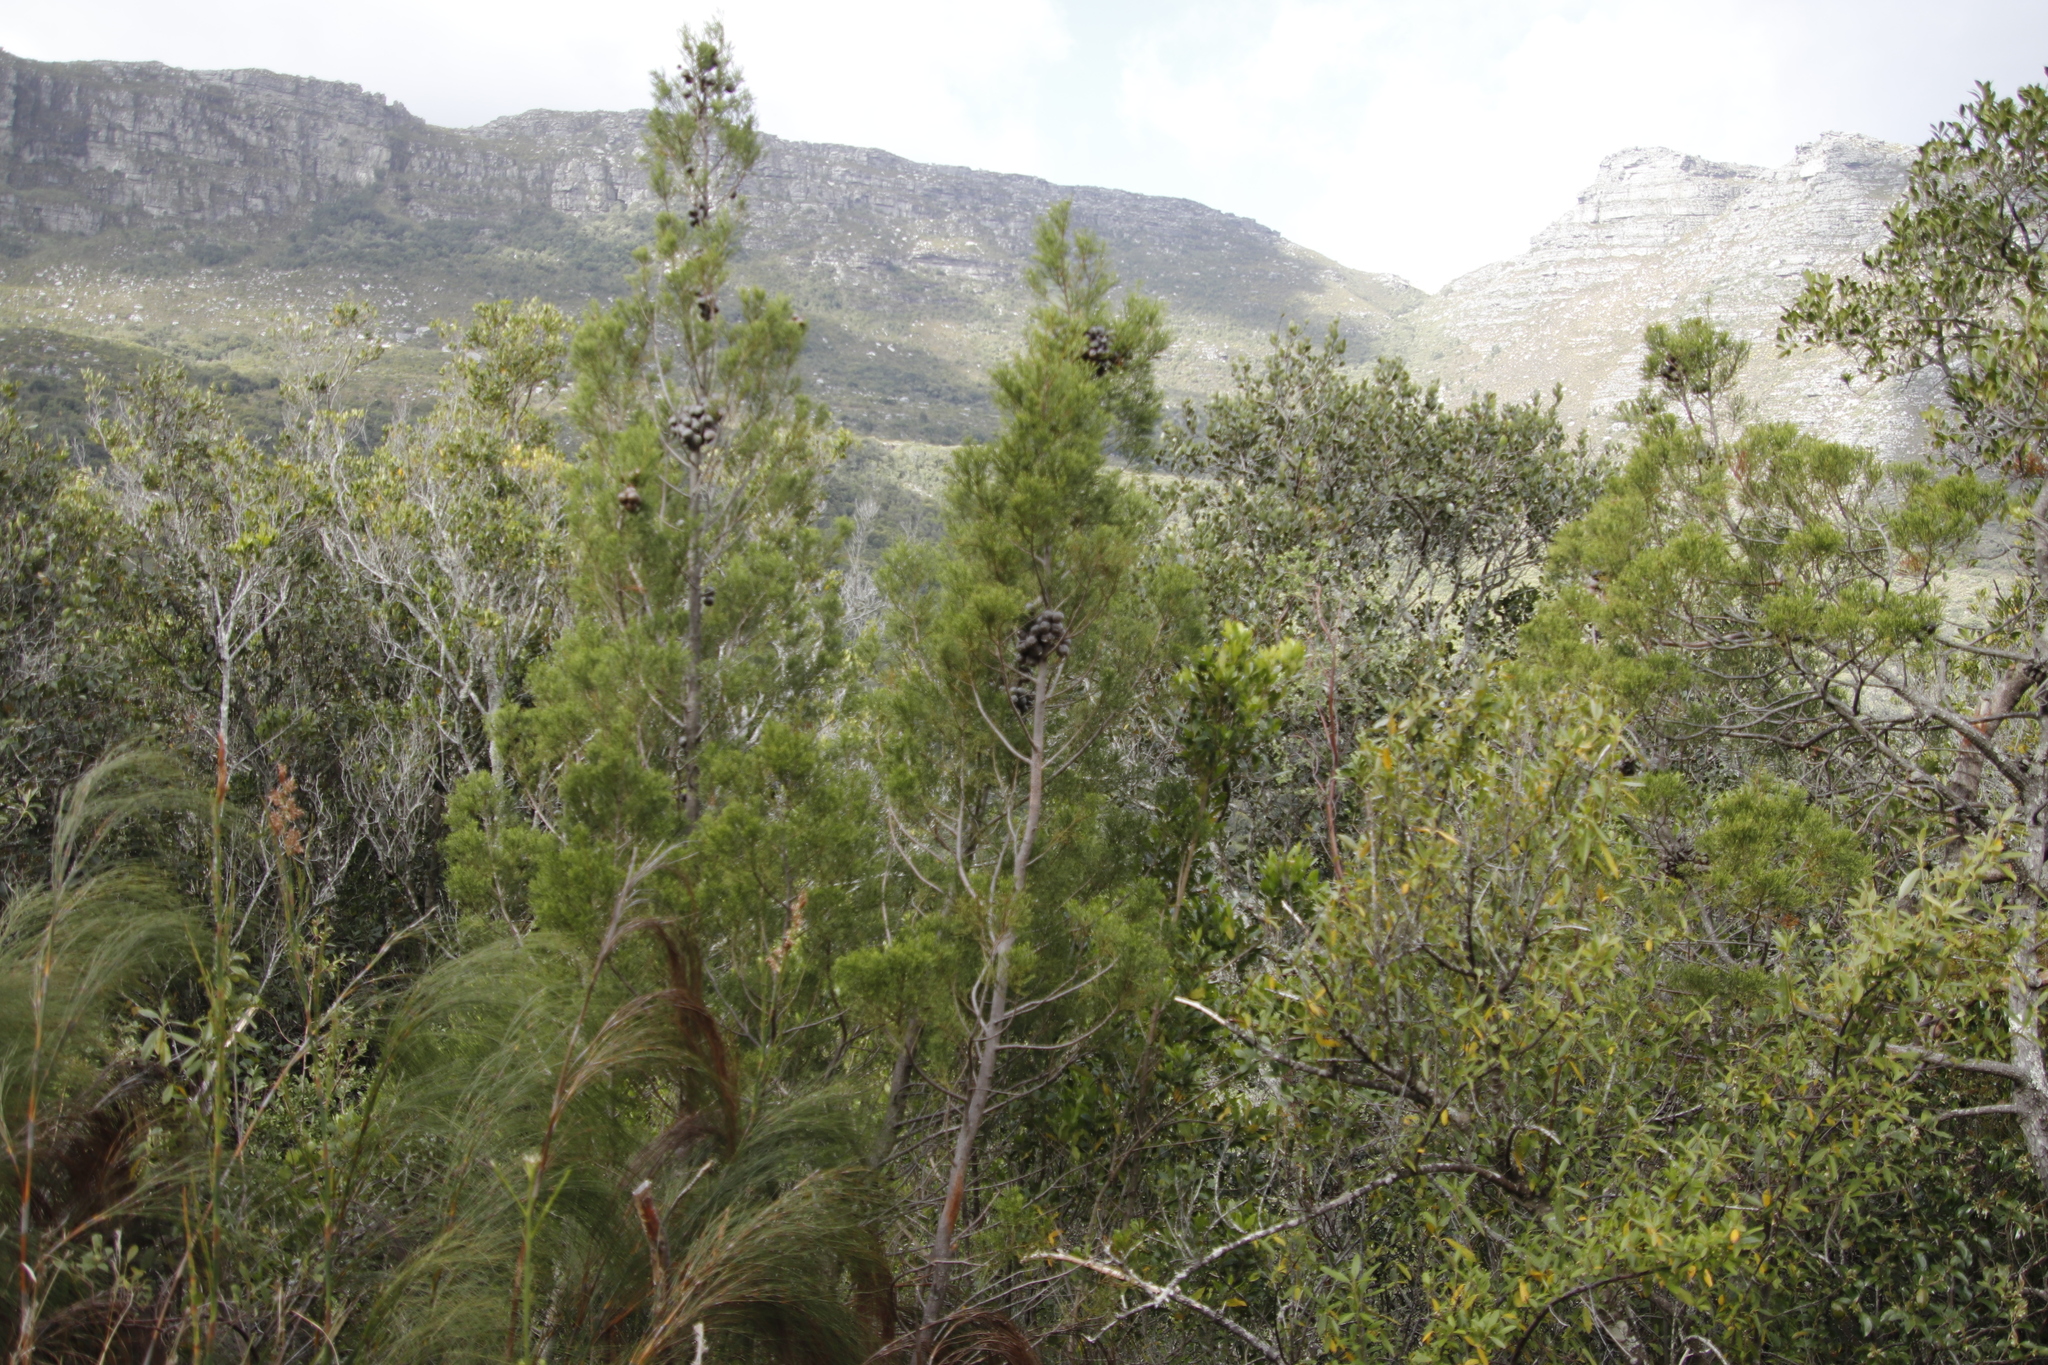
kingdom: Plantae
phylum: Tracheophyta
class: Pinopsida
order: Pinales
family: Cupressaceae
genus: Widdringtonia
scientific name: Widdringtonia nodiflora
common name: Cape cypress
